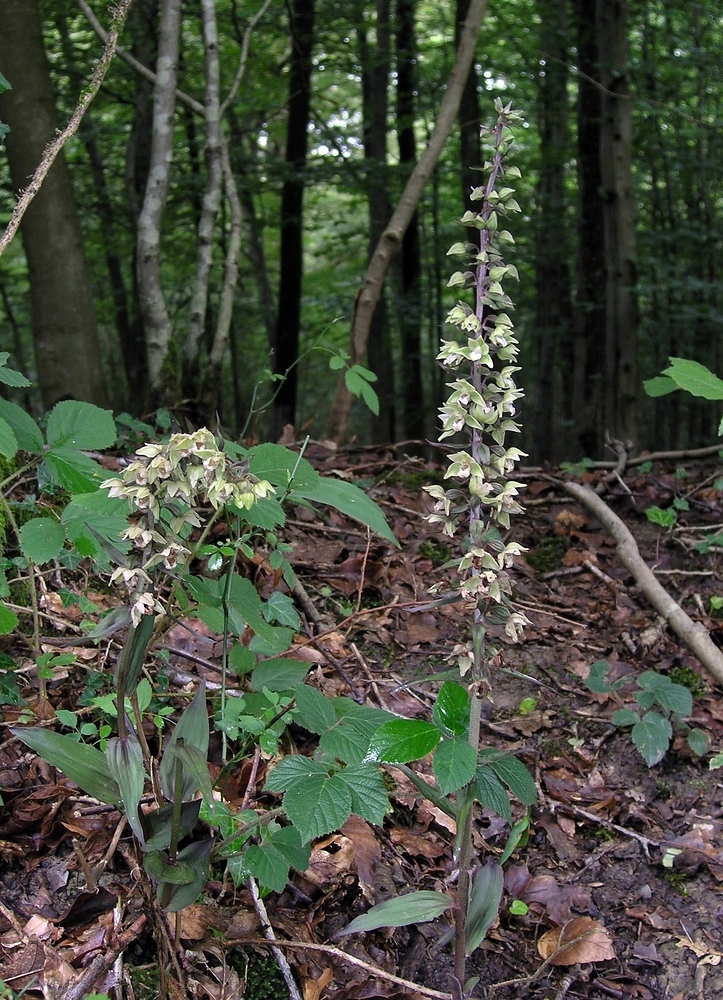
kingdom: Plantae
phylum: Tracheophyta
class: Liliopsida
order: Asparagales
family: Orchidaceae
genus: Epipactis
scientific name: Epipactis purpurata
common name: Violet helleborine
